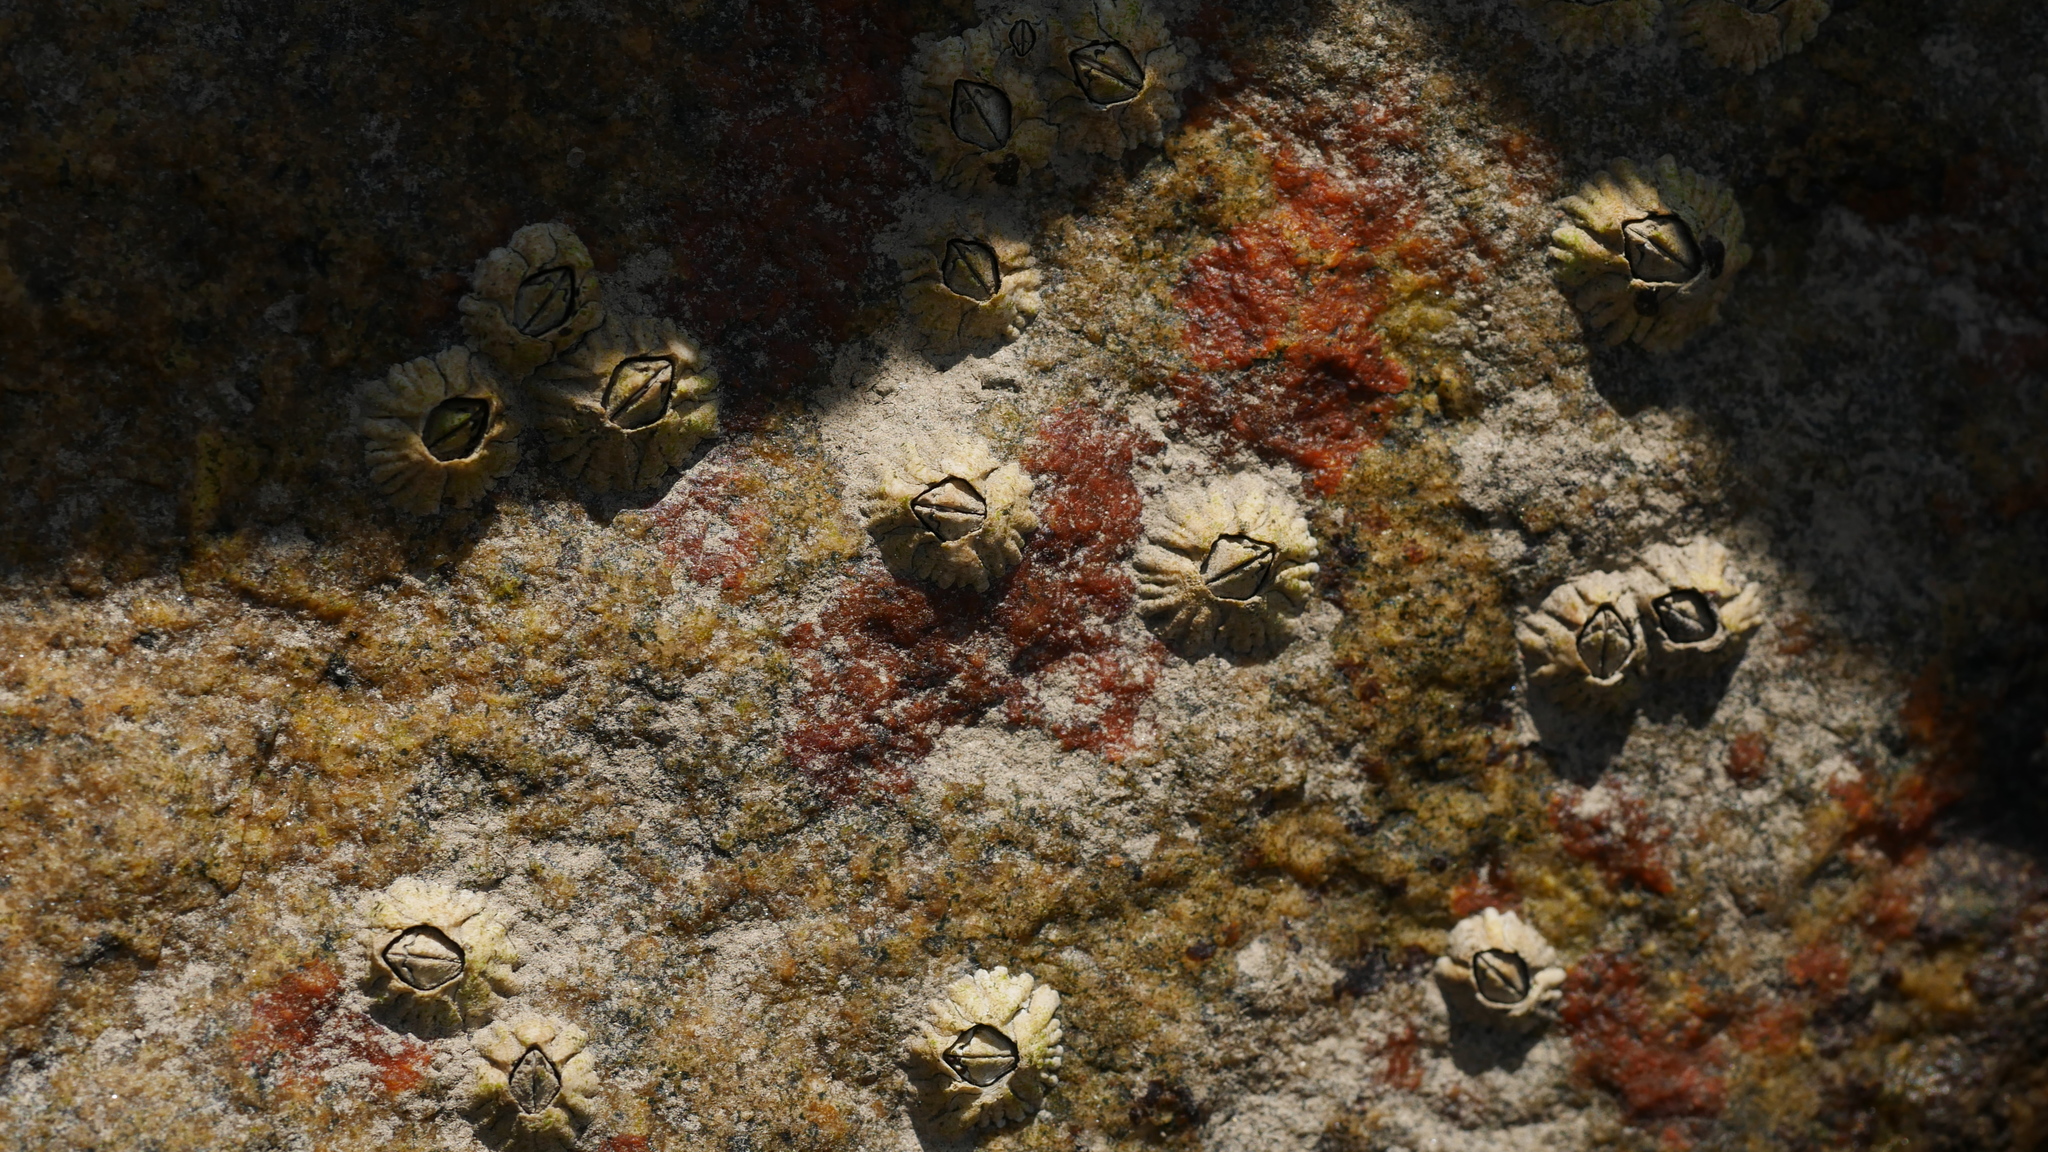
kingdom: Animalia
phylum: Arthropoda
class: Maxillopoda
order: Sessilia
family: Archaeobalanidae
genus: Semibalanus
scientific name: Semibalanus balanoides
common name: Acorn barnacle
